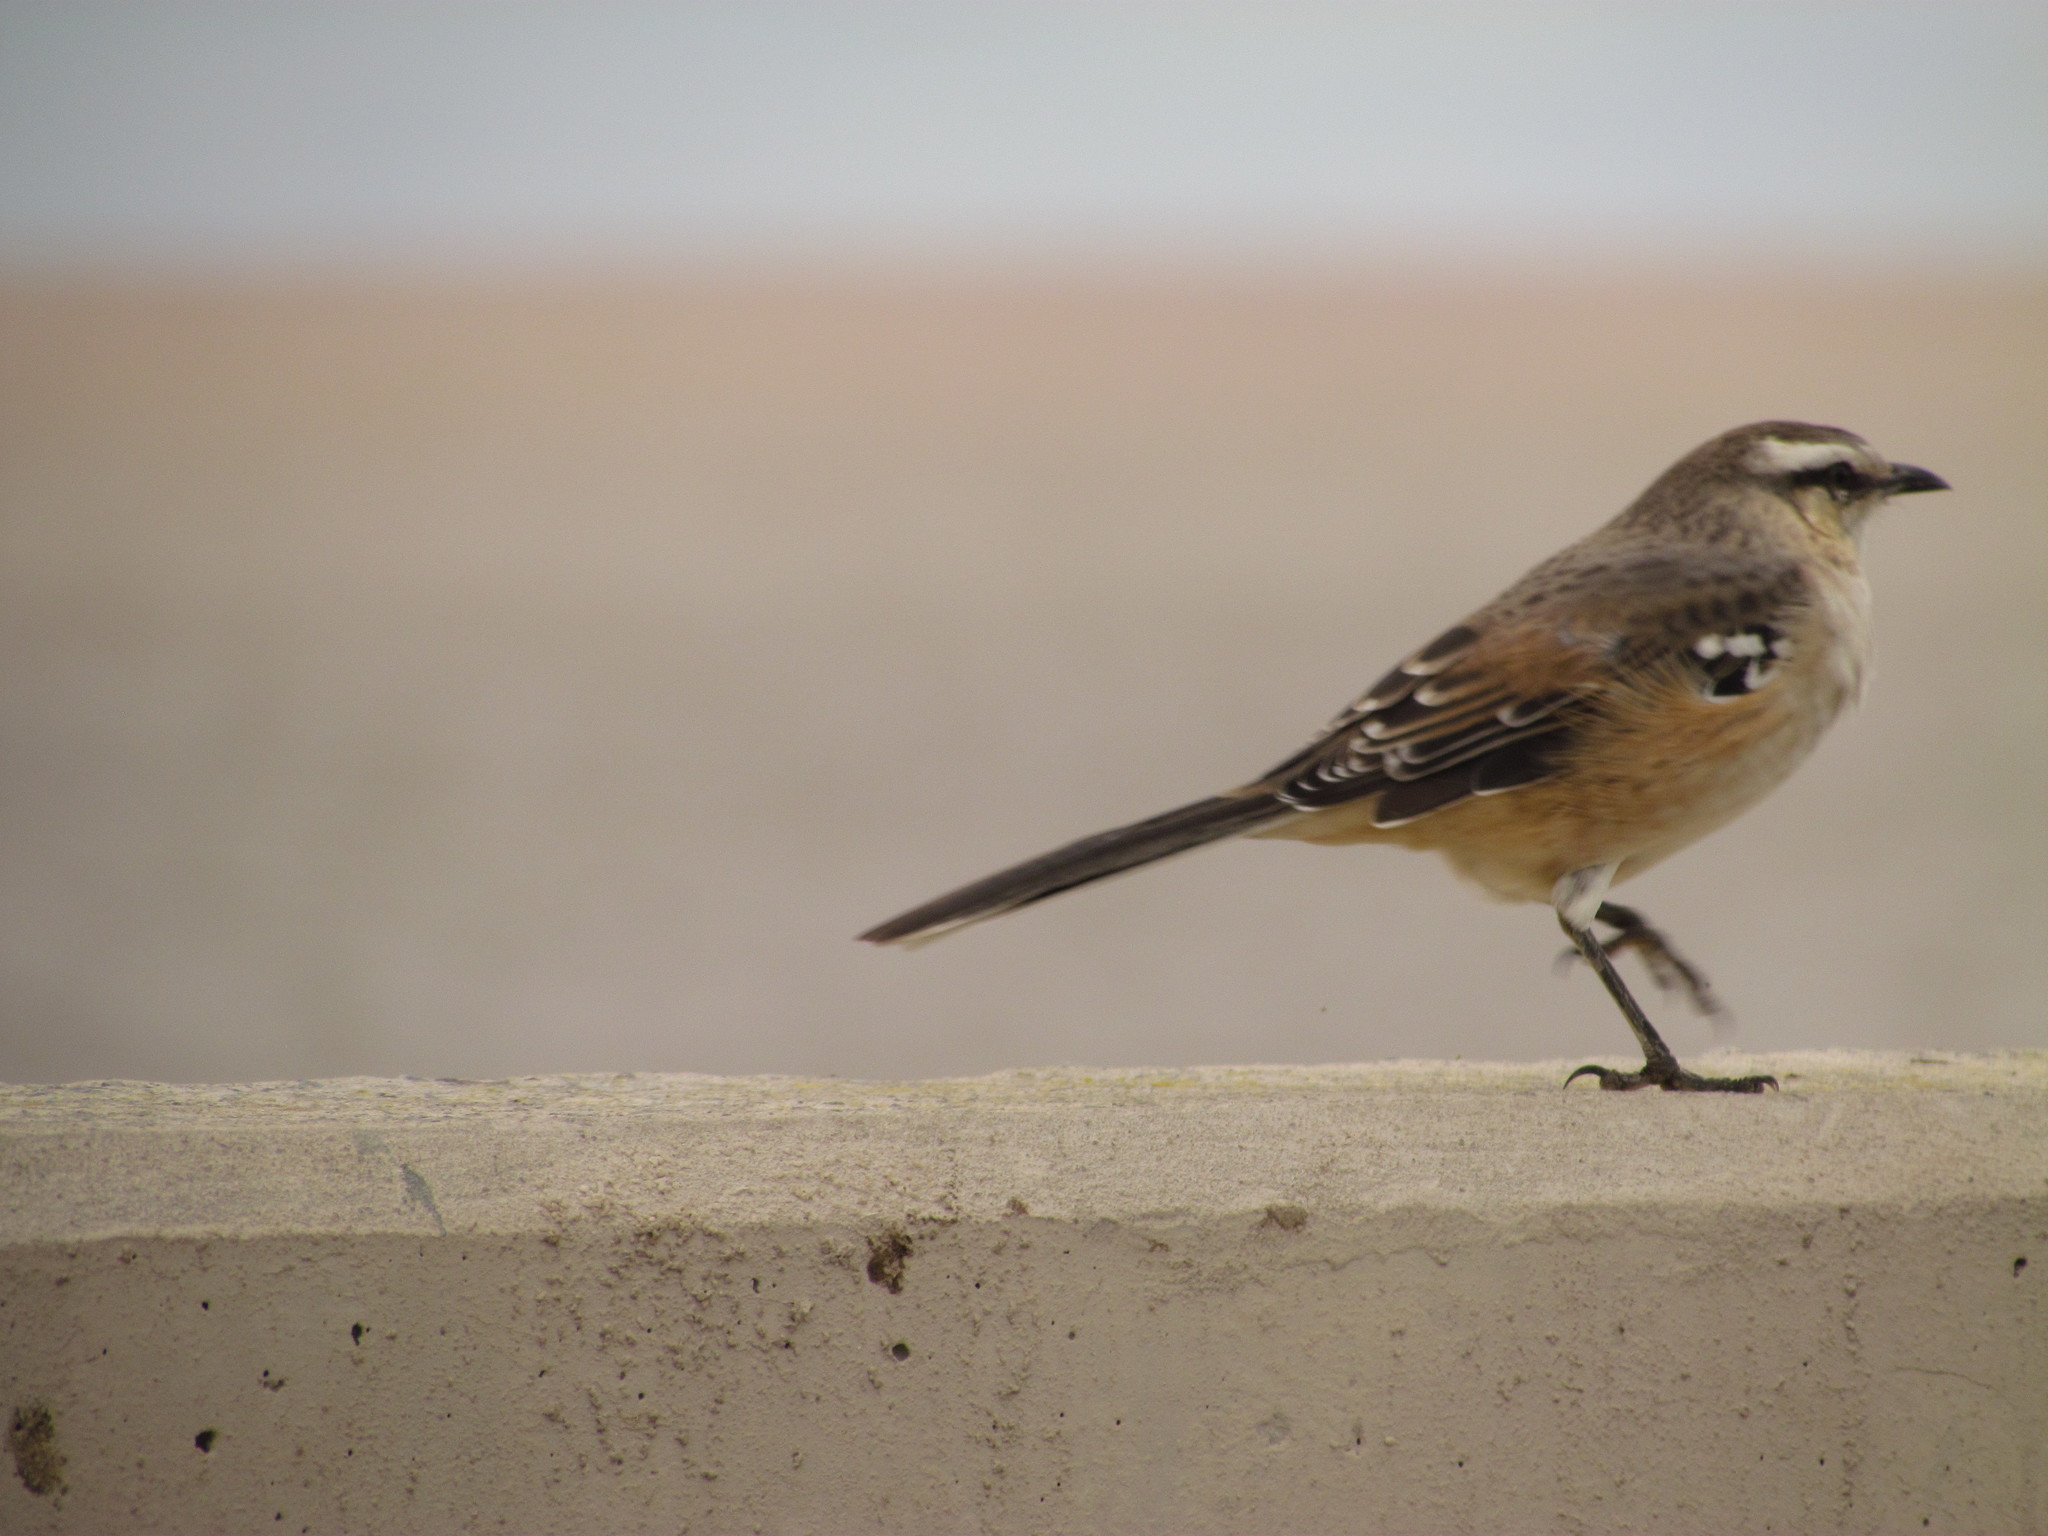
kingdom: Animalia
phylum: Chordata
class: Aves
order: Passeriformes
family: Mimidae
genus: Mimus
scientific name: Mimus saturninus
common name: Chalk-browed mockingbird
